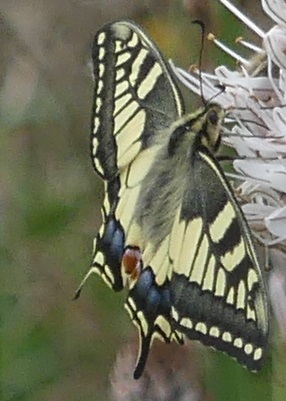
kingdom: Animalia
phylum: Arthropoda
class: Insecta
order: Lepidoptera
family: Papilionidae
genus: Papilio
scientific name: Papilio machaon
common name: Swallowtail
